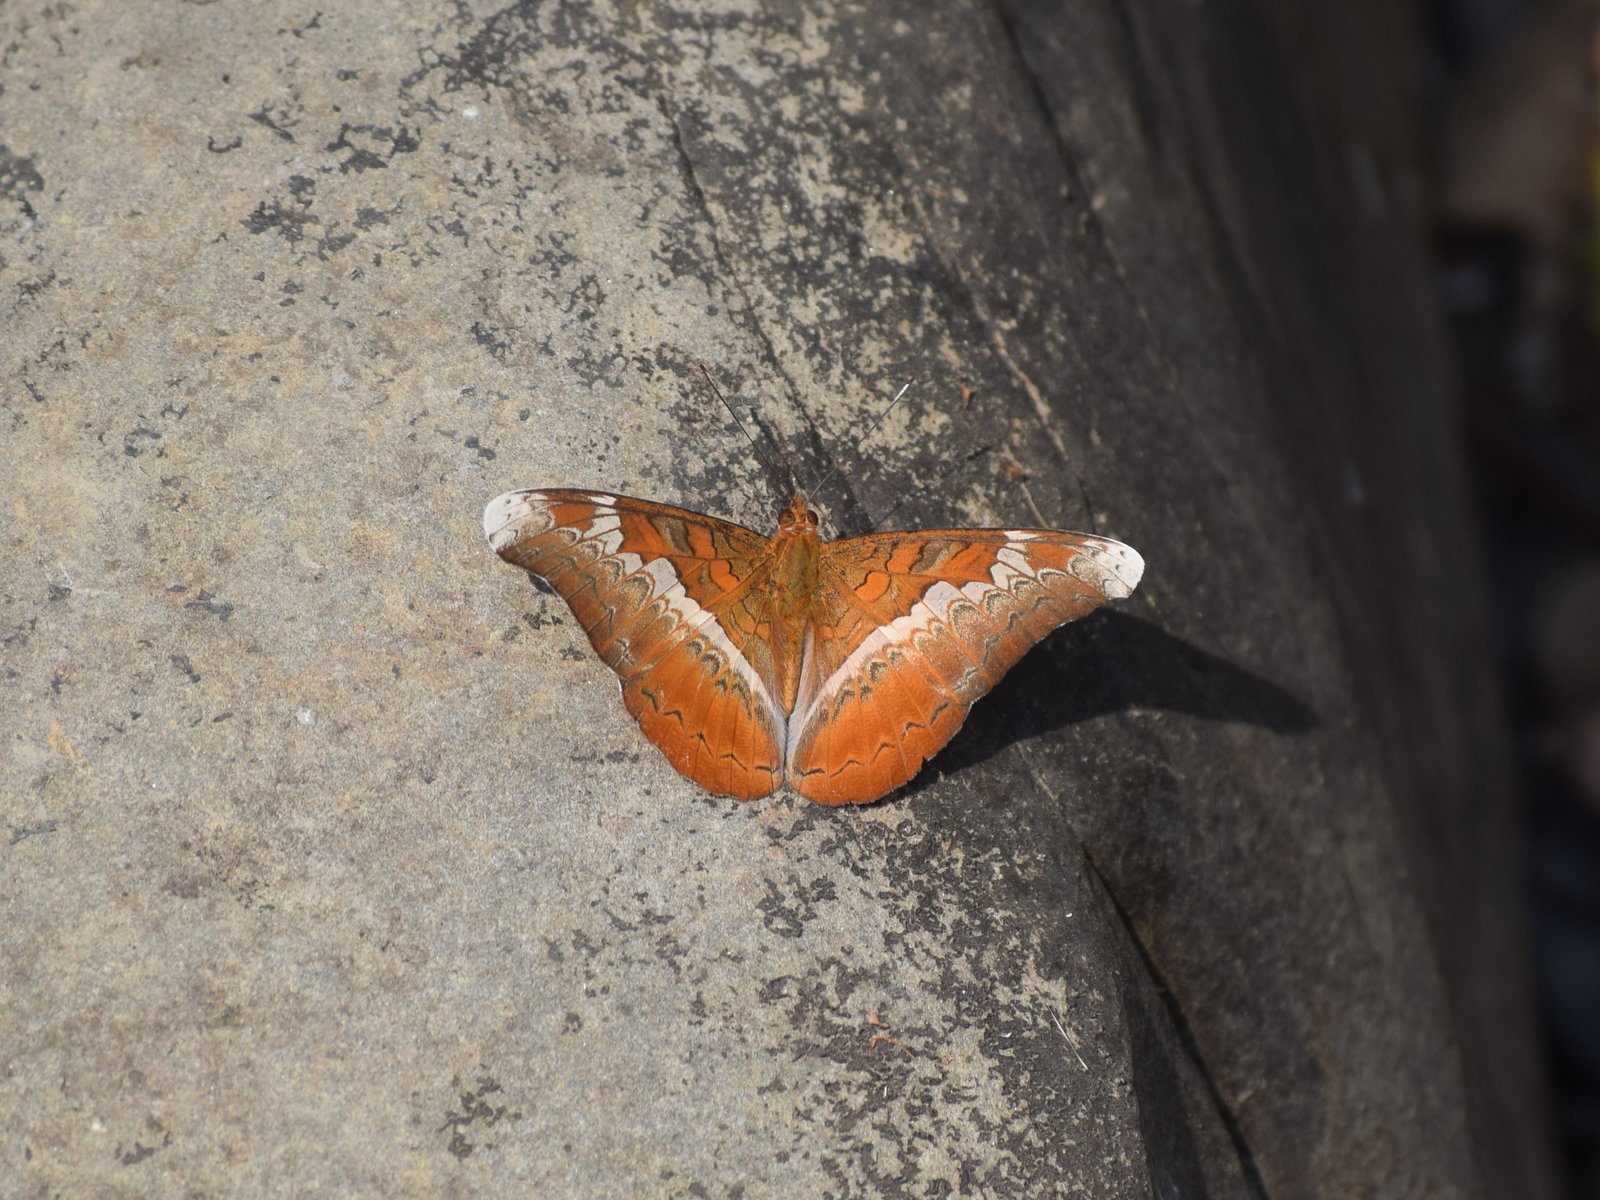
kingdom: Animalia
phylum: Arthropoda
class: Insecta
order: Lepidoptera
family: Nymphalidae
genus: Lebadea
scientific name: Lebadea martha
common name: Knight
